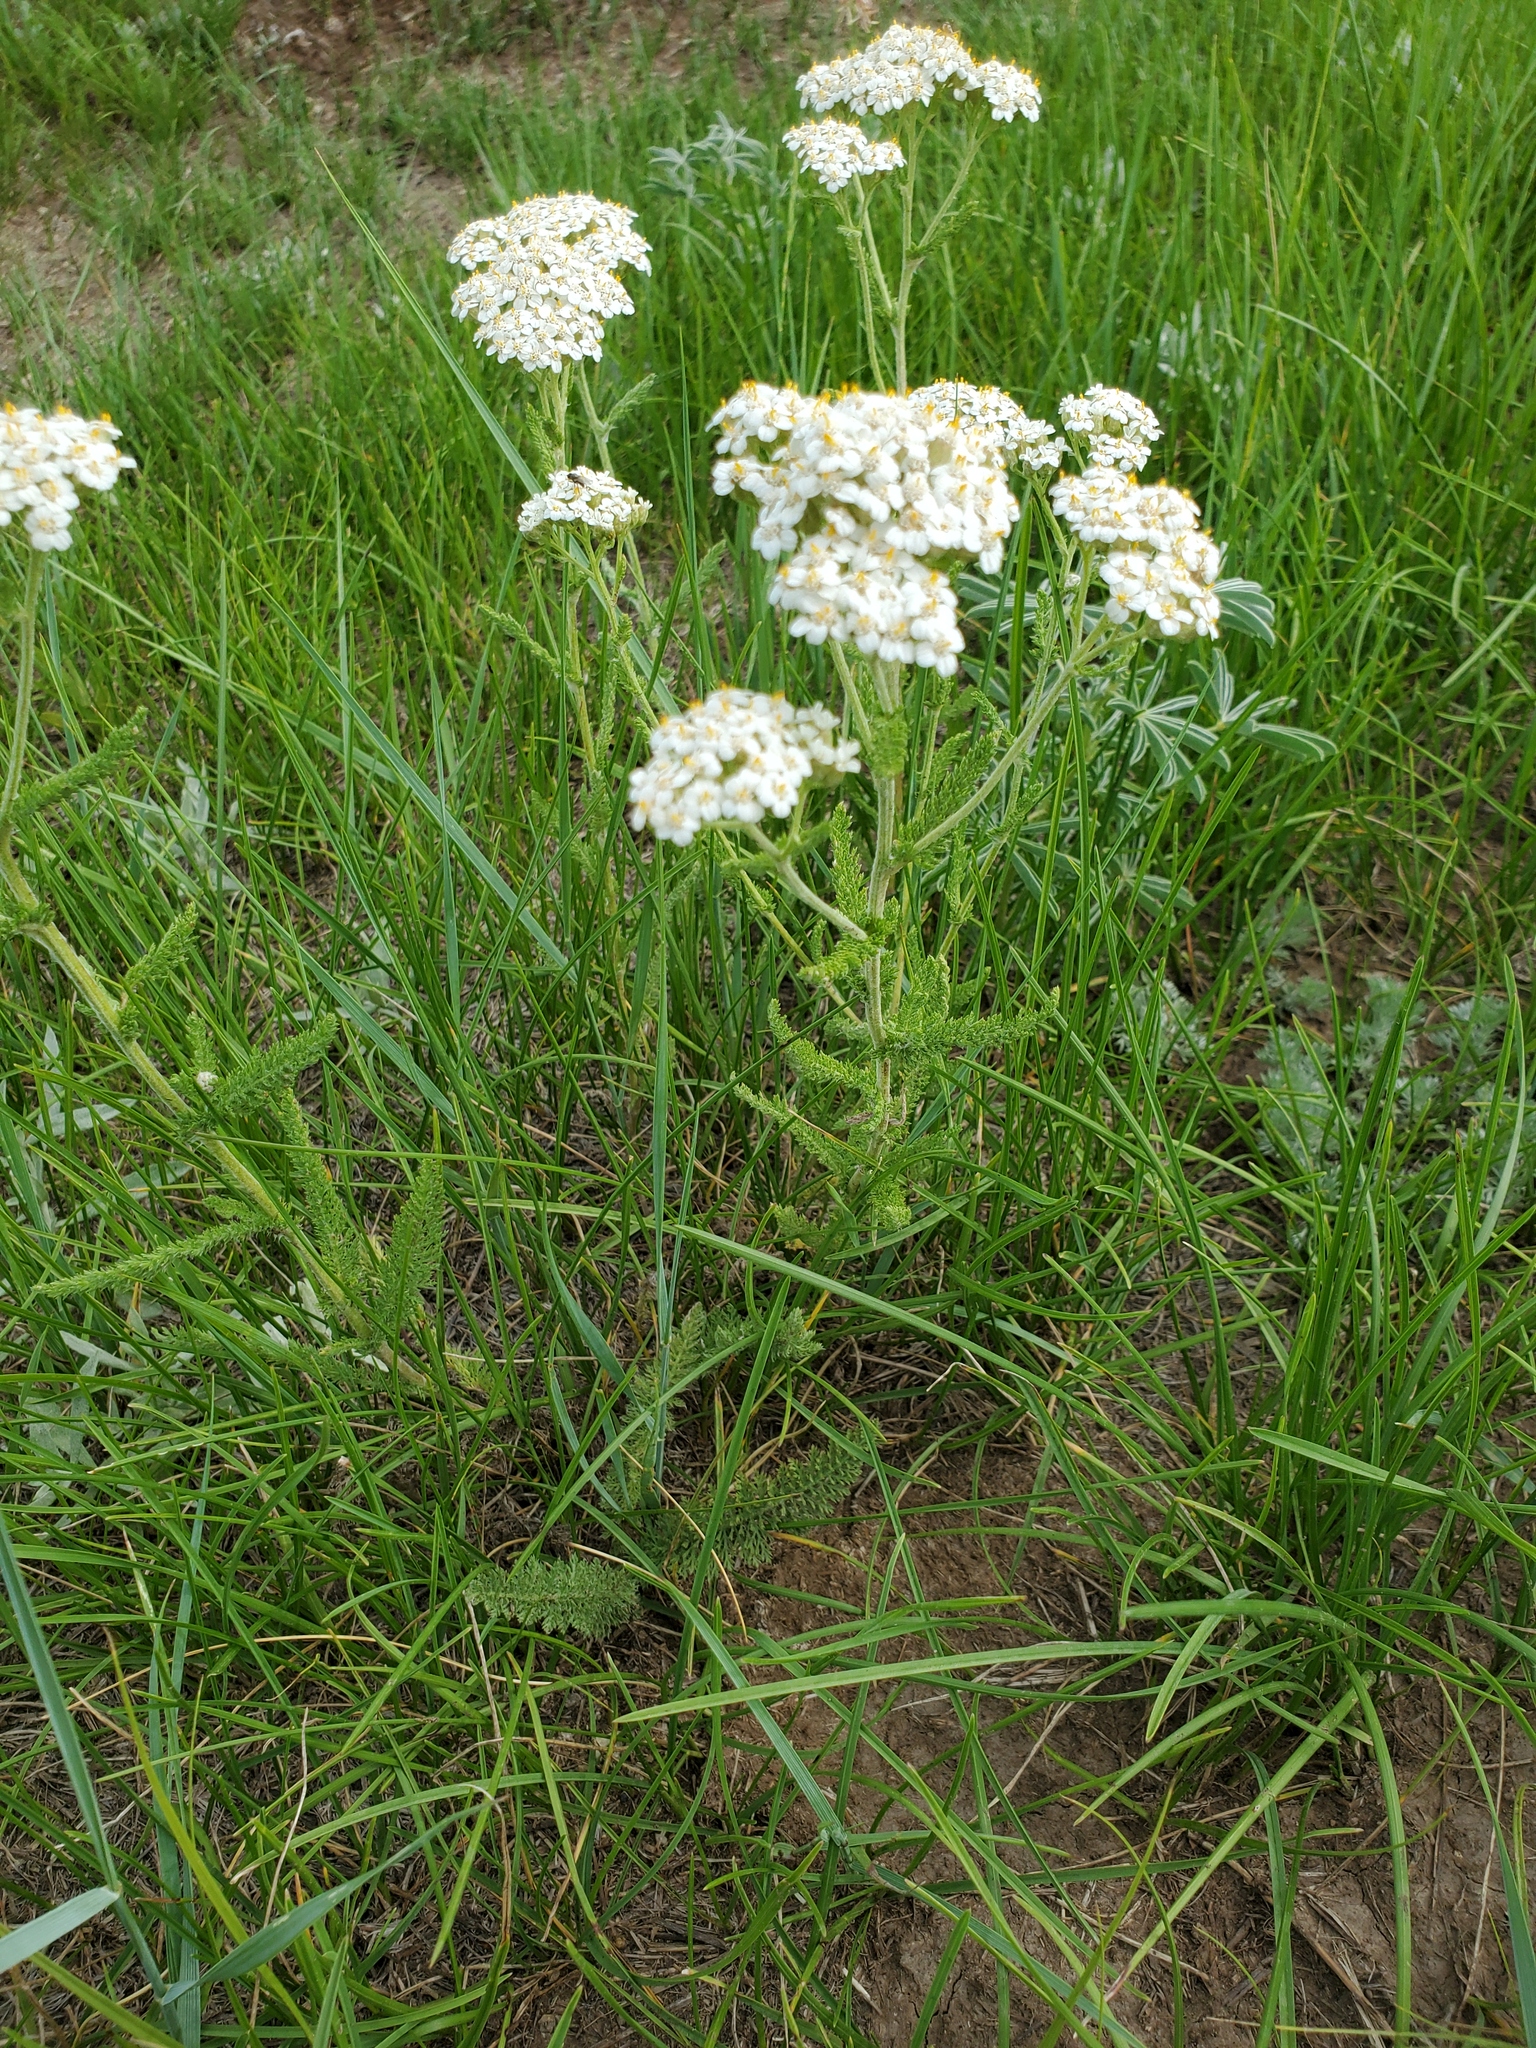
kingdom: Plantae
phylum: Tracheophyta
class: Magnoliopsida
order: Asterales
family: Asteraceae
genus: Achillea
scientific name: Achillea millefolium
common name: Yarrow
